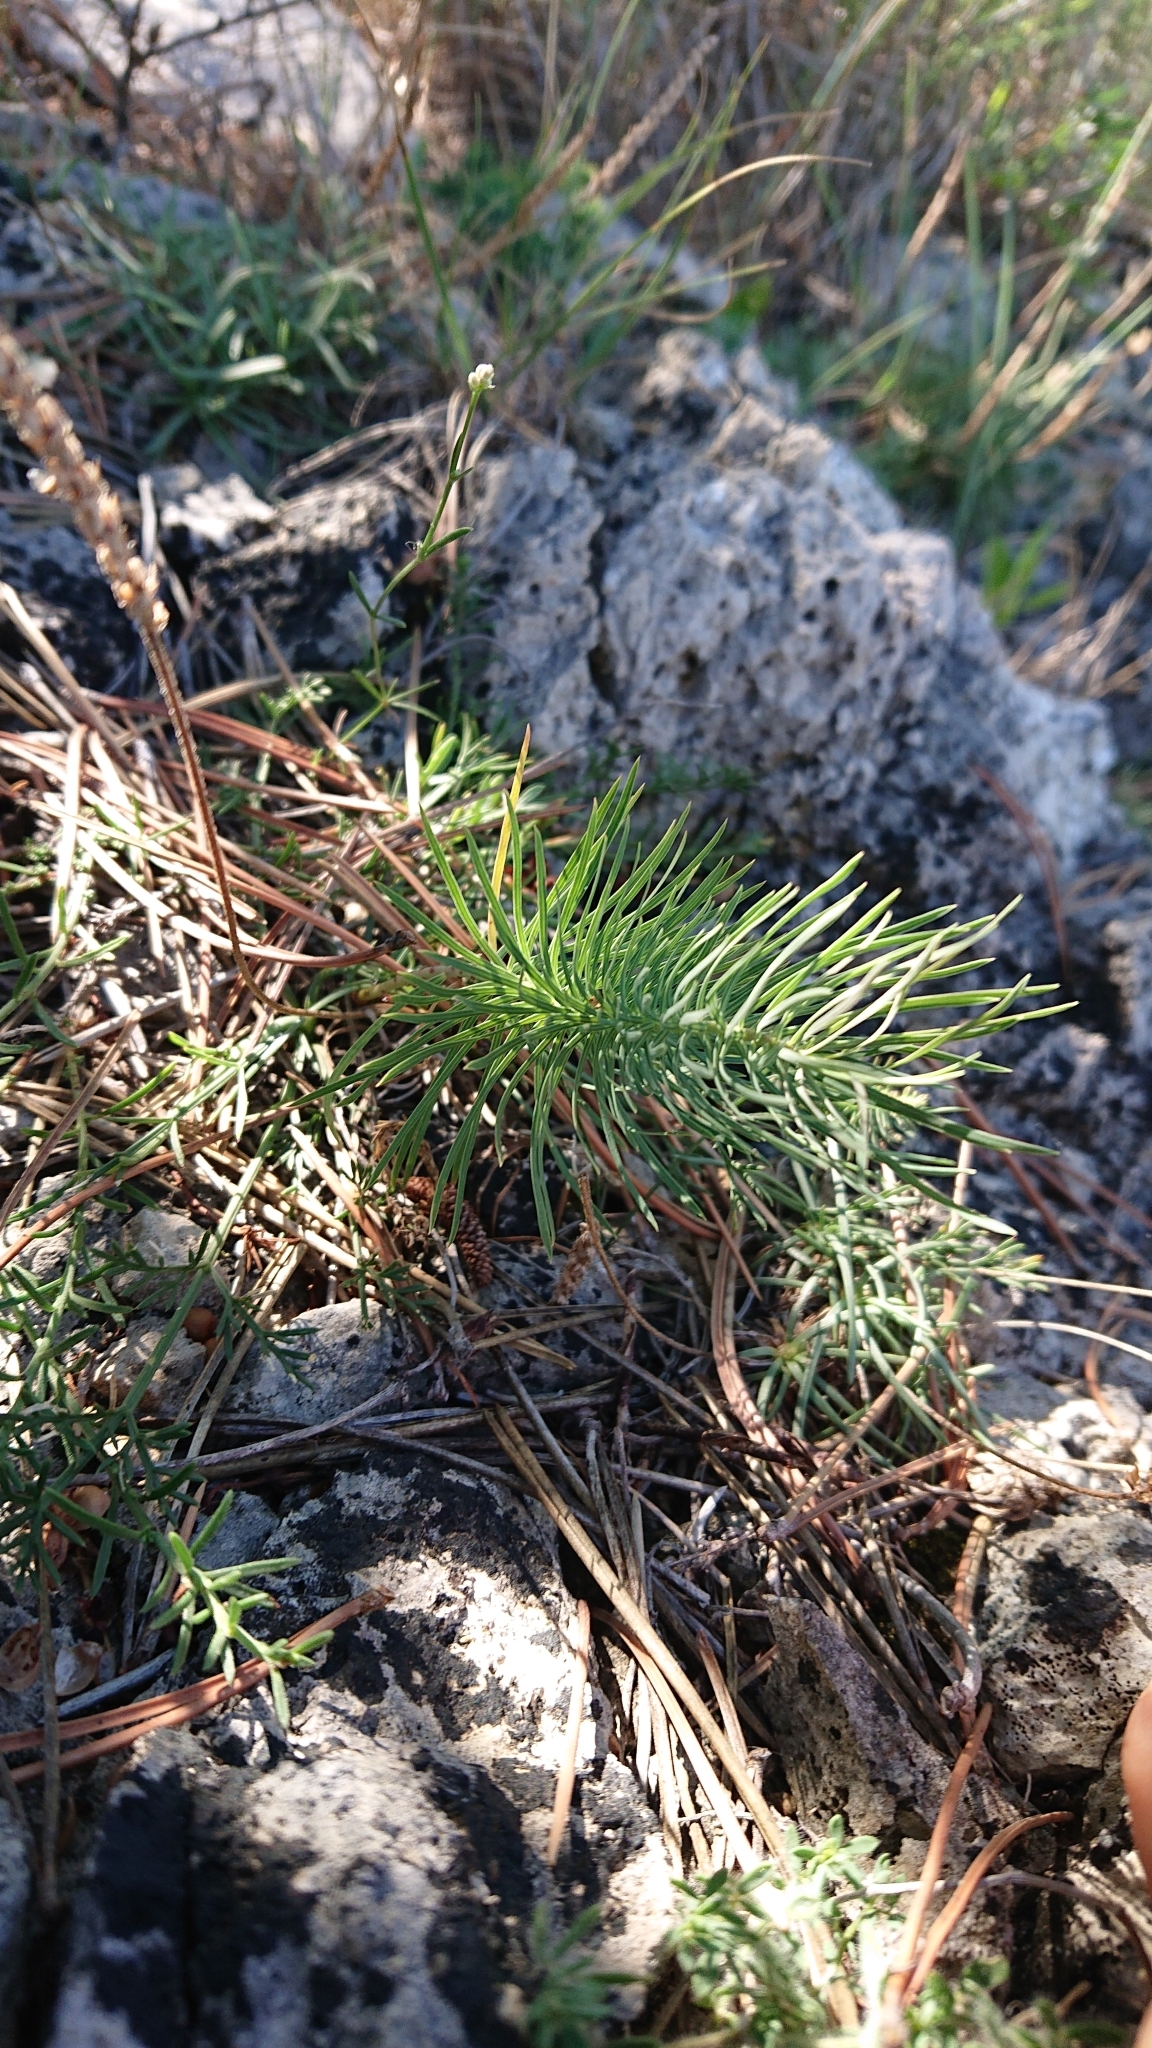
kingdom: Plantae
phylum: Tracheophyta
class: Magnoliopsida
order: Malpighiales
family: Euphorbiaceae
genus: Euphorbia
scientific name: Euphorbia cyparissias
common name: Cypress spurge
